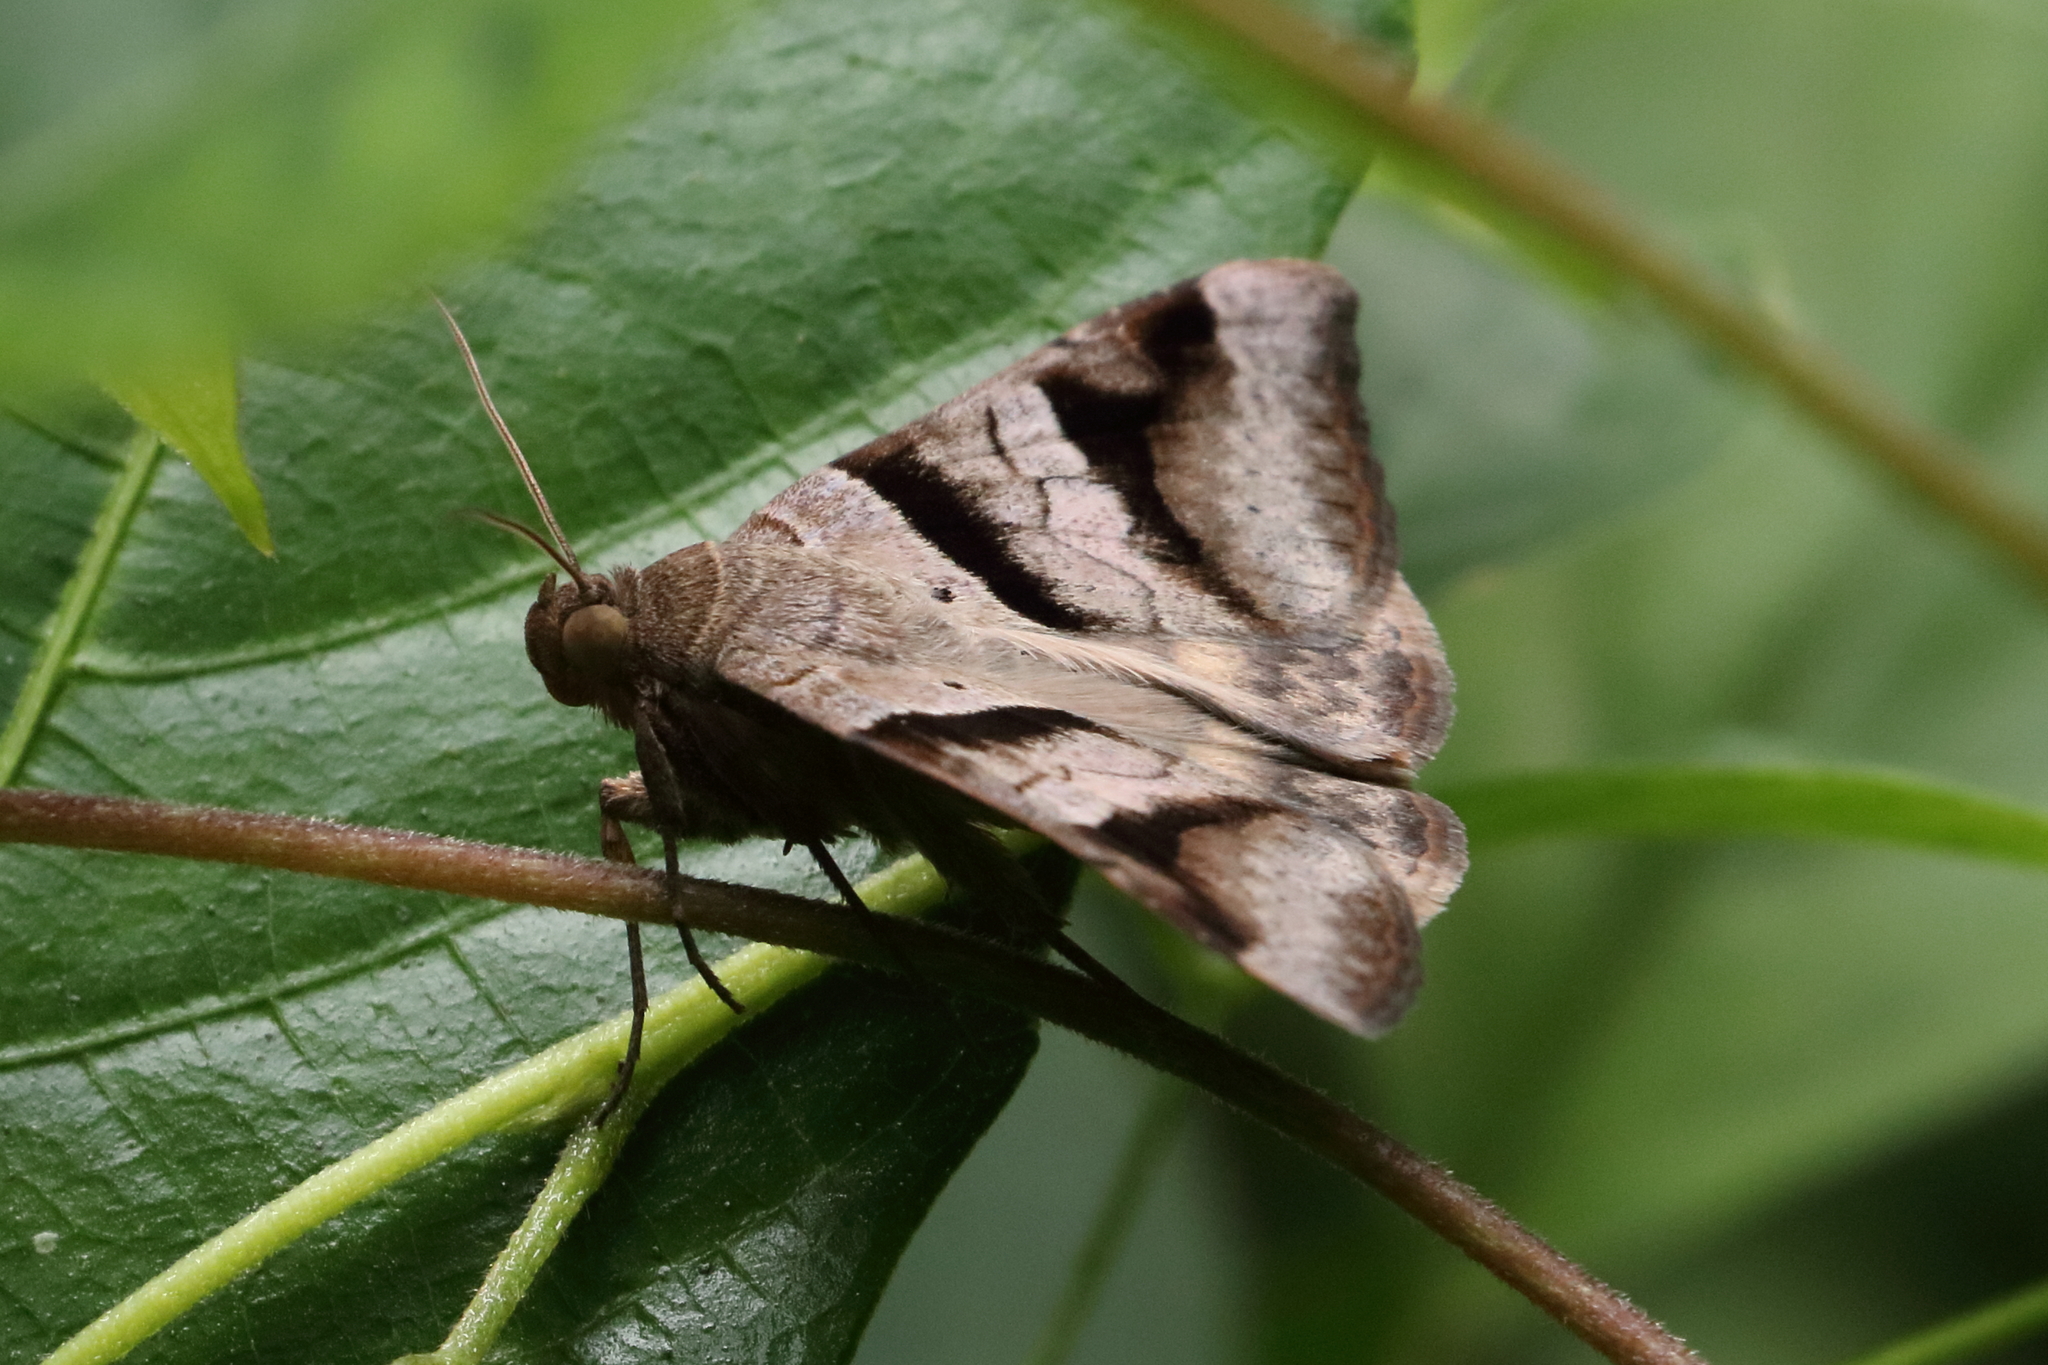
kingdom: Animalia
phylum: Arthropoda
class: Insecta
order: Lepidoptera
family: Erebidae
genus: Mocis
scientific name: Mocis undata
